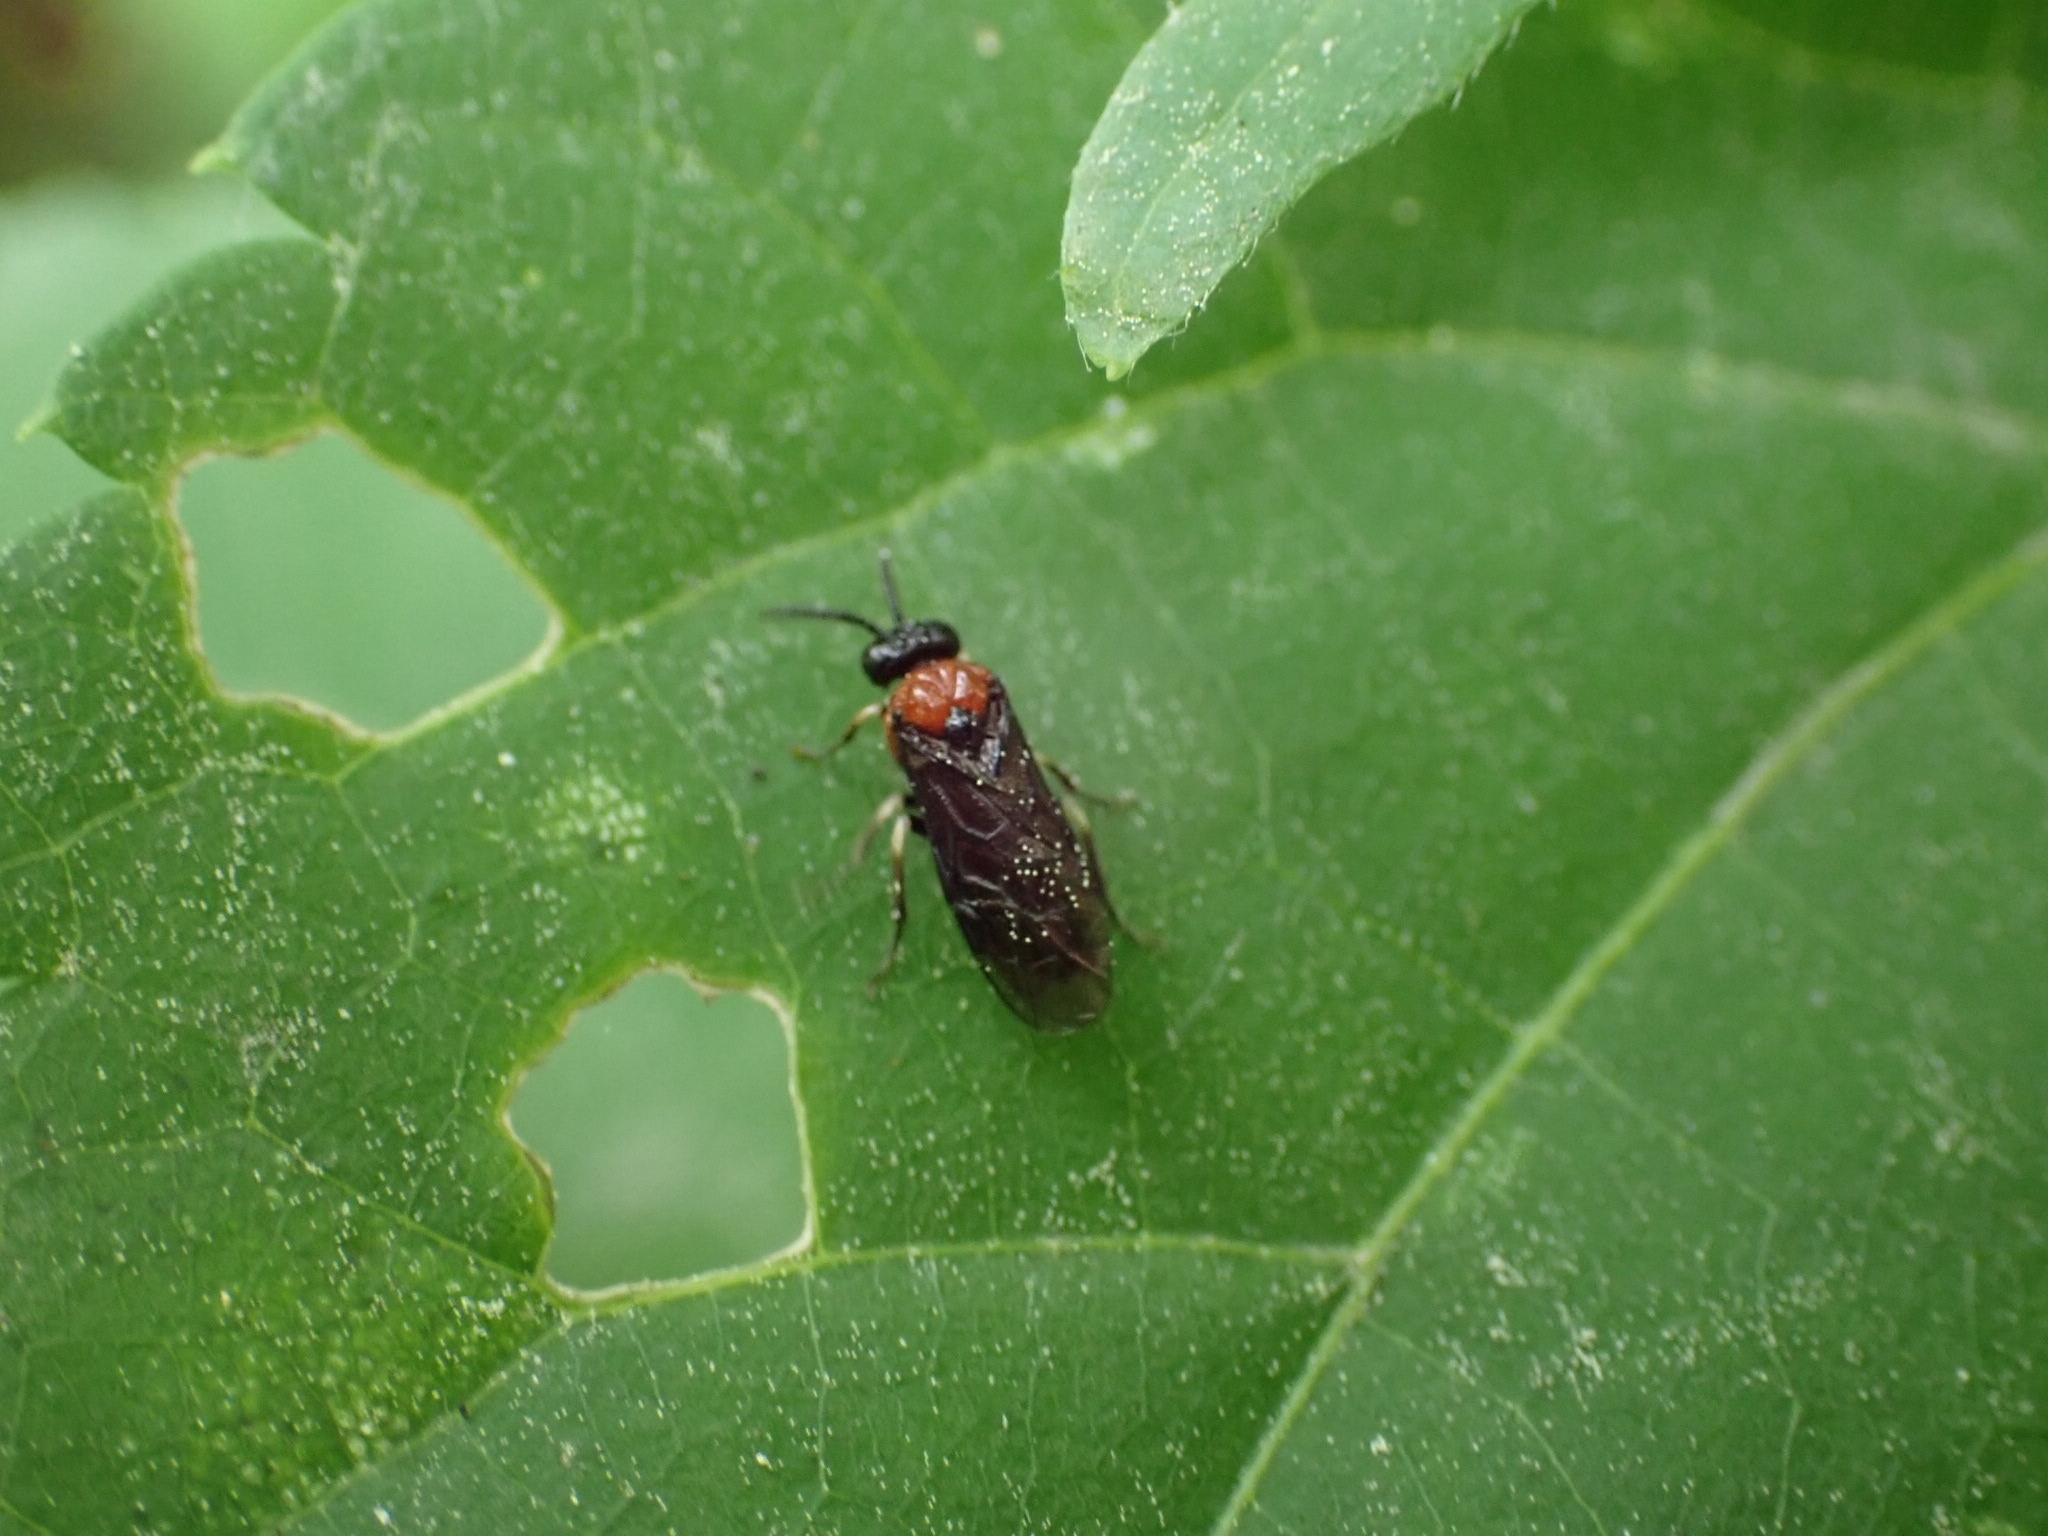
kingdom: Animalia
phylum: Arthropoda
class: Insecta
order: Hymenoptera
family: Tenthredinidae
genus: Eutomostethus
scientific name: Eutomostethus ephippium
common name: Tenthredid wasp
